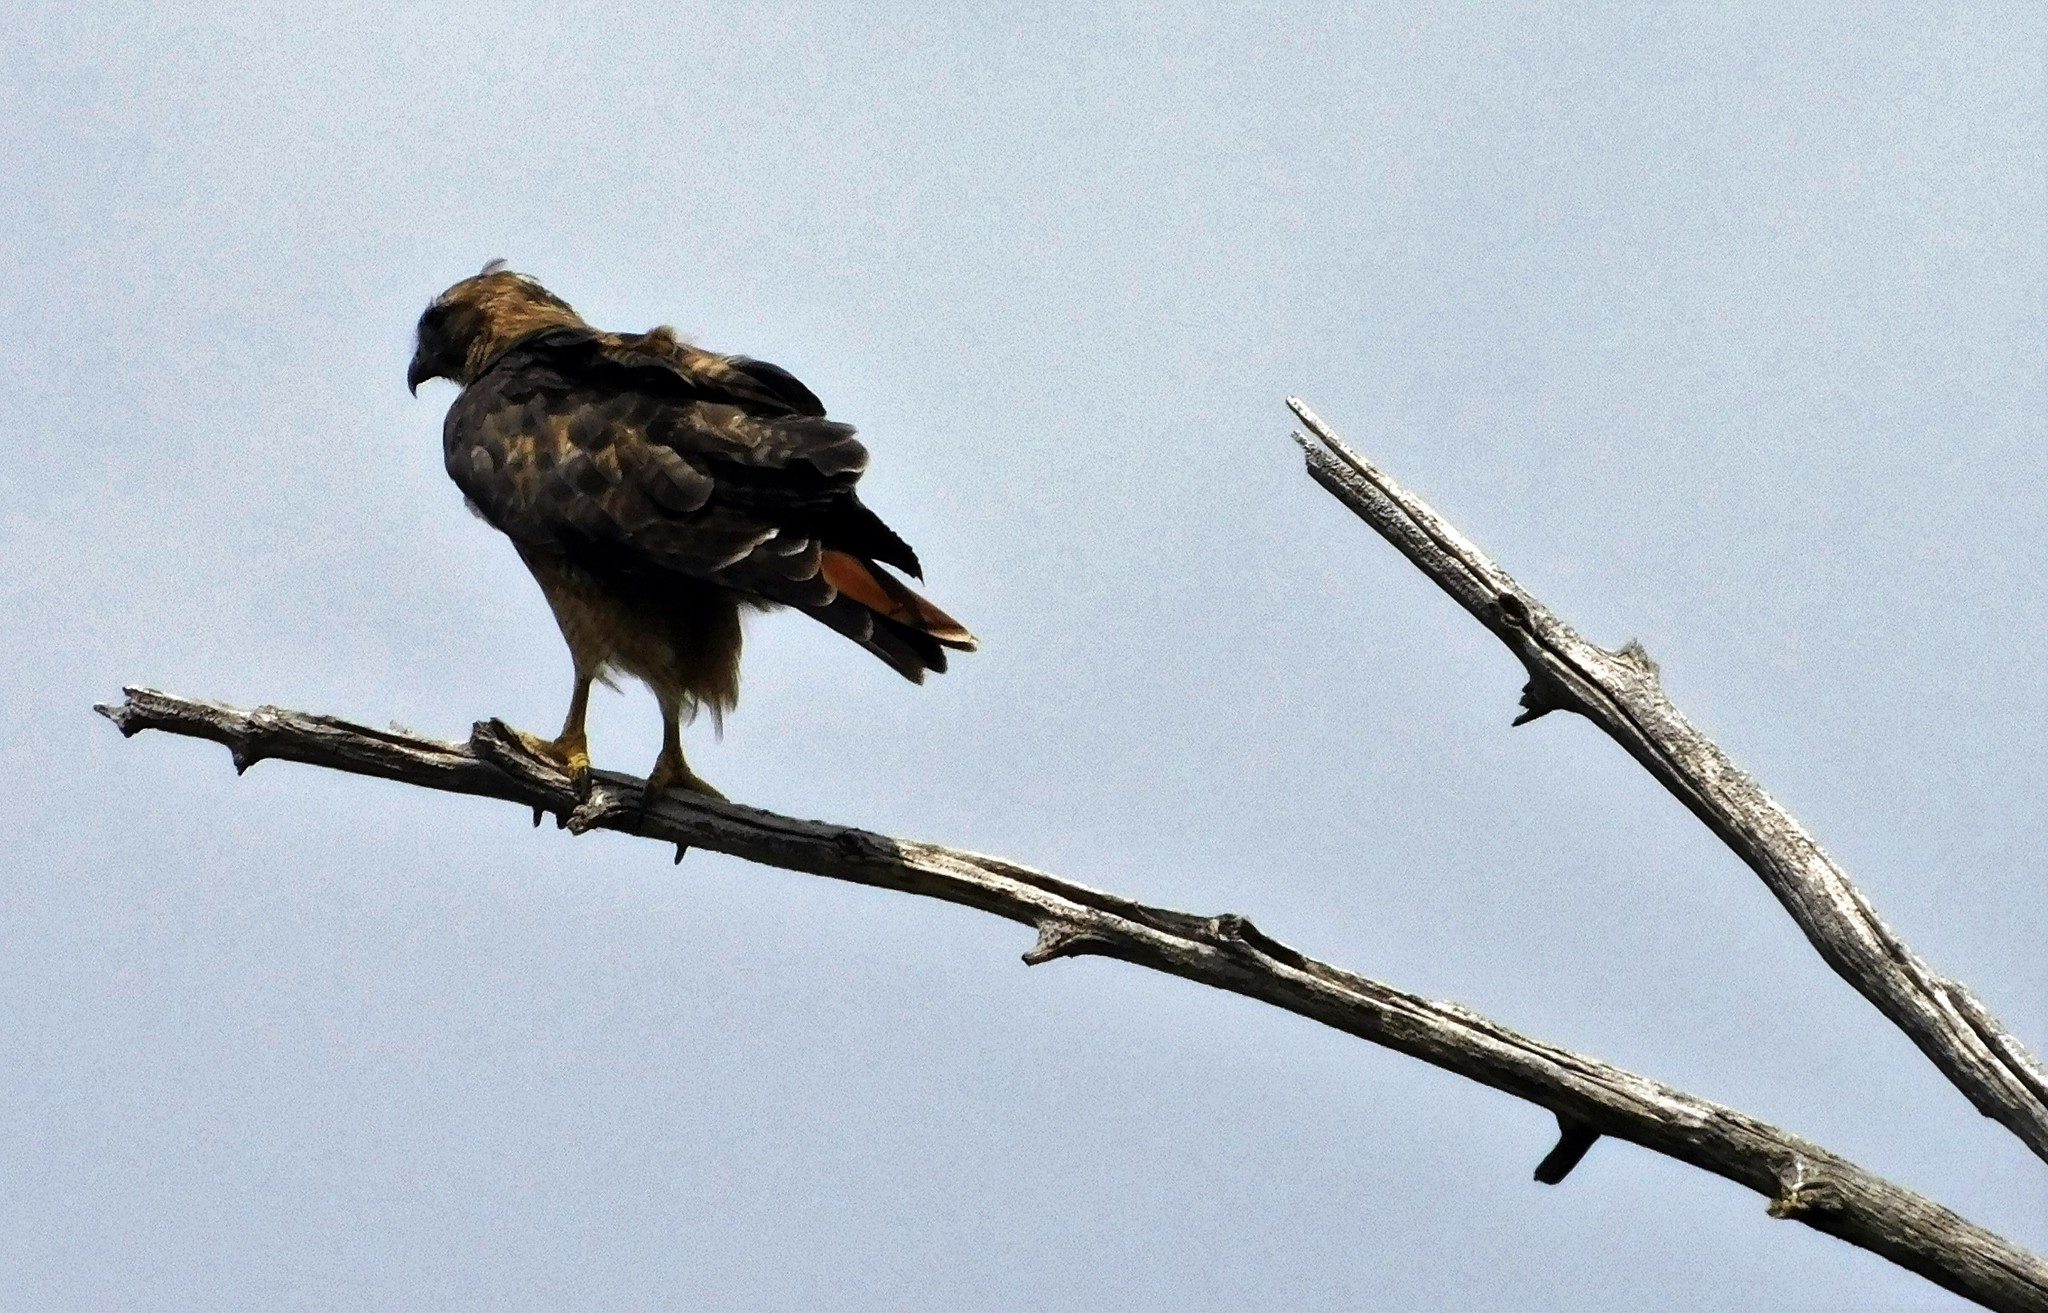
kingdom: Animalia
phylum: Chordata
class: Aves
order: Accipitriformes
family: Accipitridae
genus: Buteo
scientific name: Buteo jamaicensis
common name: Red-tailed hawk
